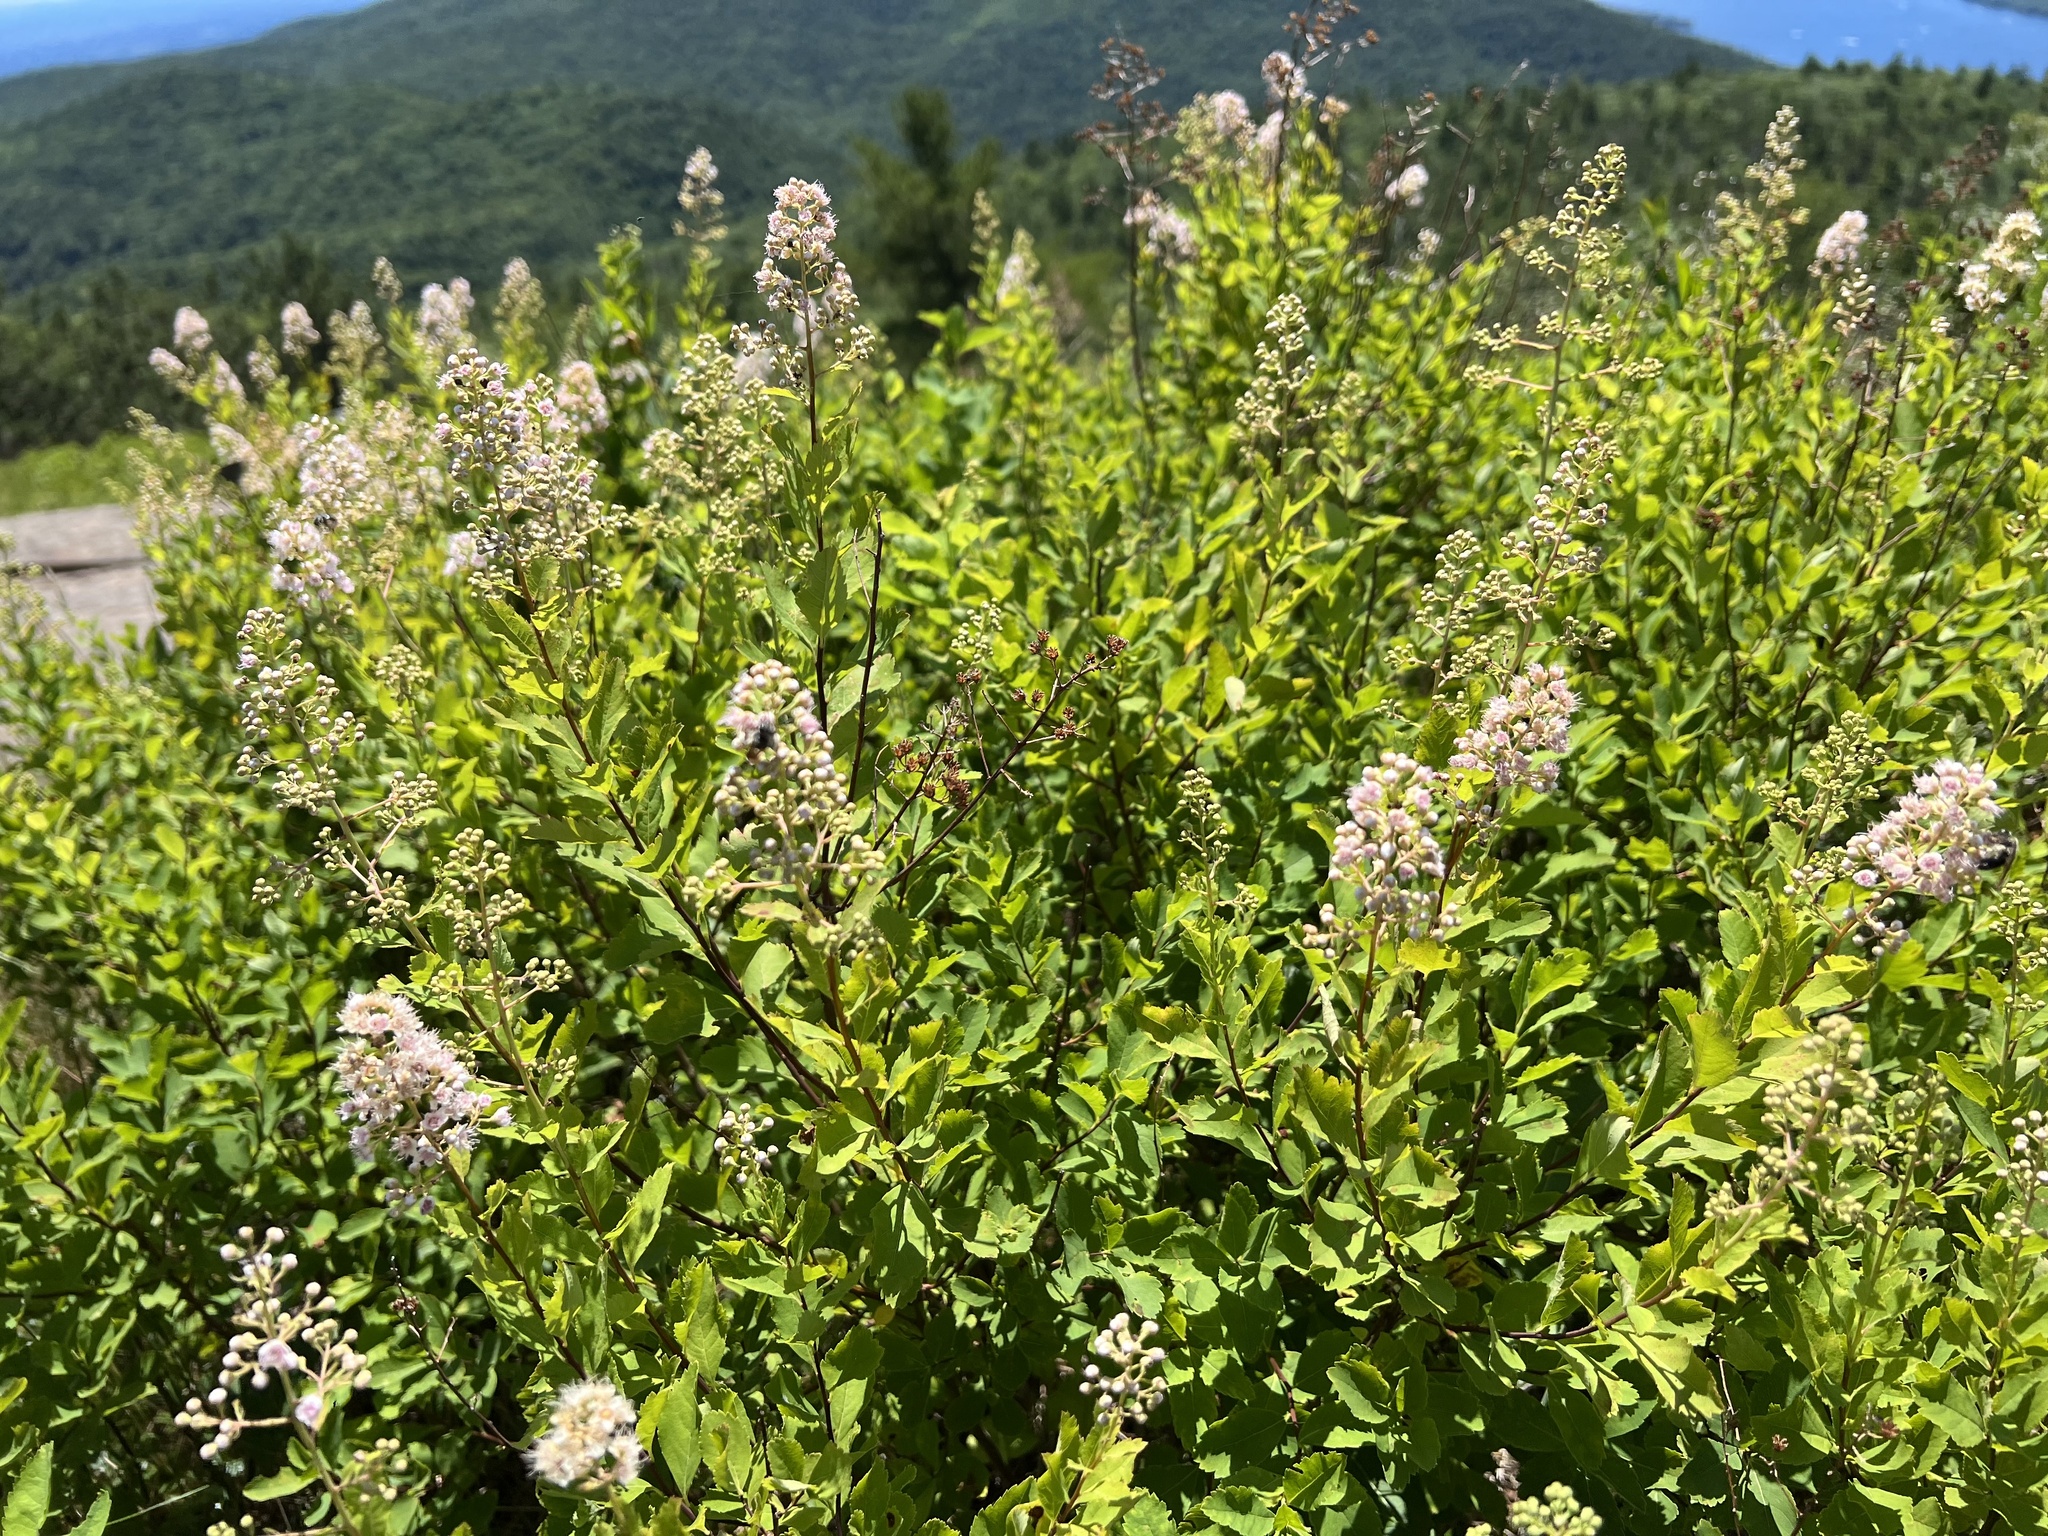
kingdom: Plantae
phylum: Tracheophyta
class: Magnoliopsida
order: Rosales
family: Rosaceae
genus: Spiraea
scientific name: Spiraea alba
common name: Pale bridewort
